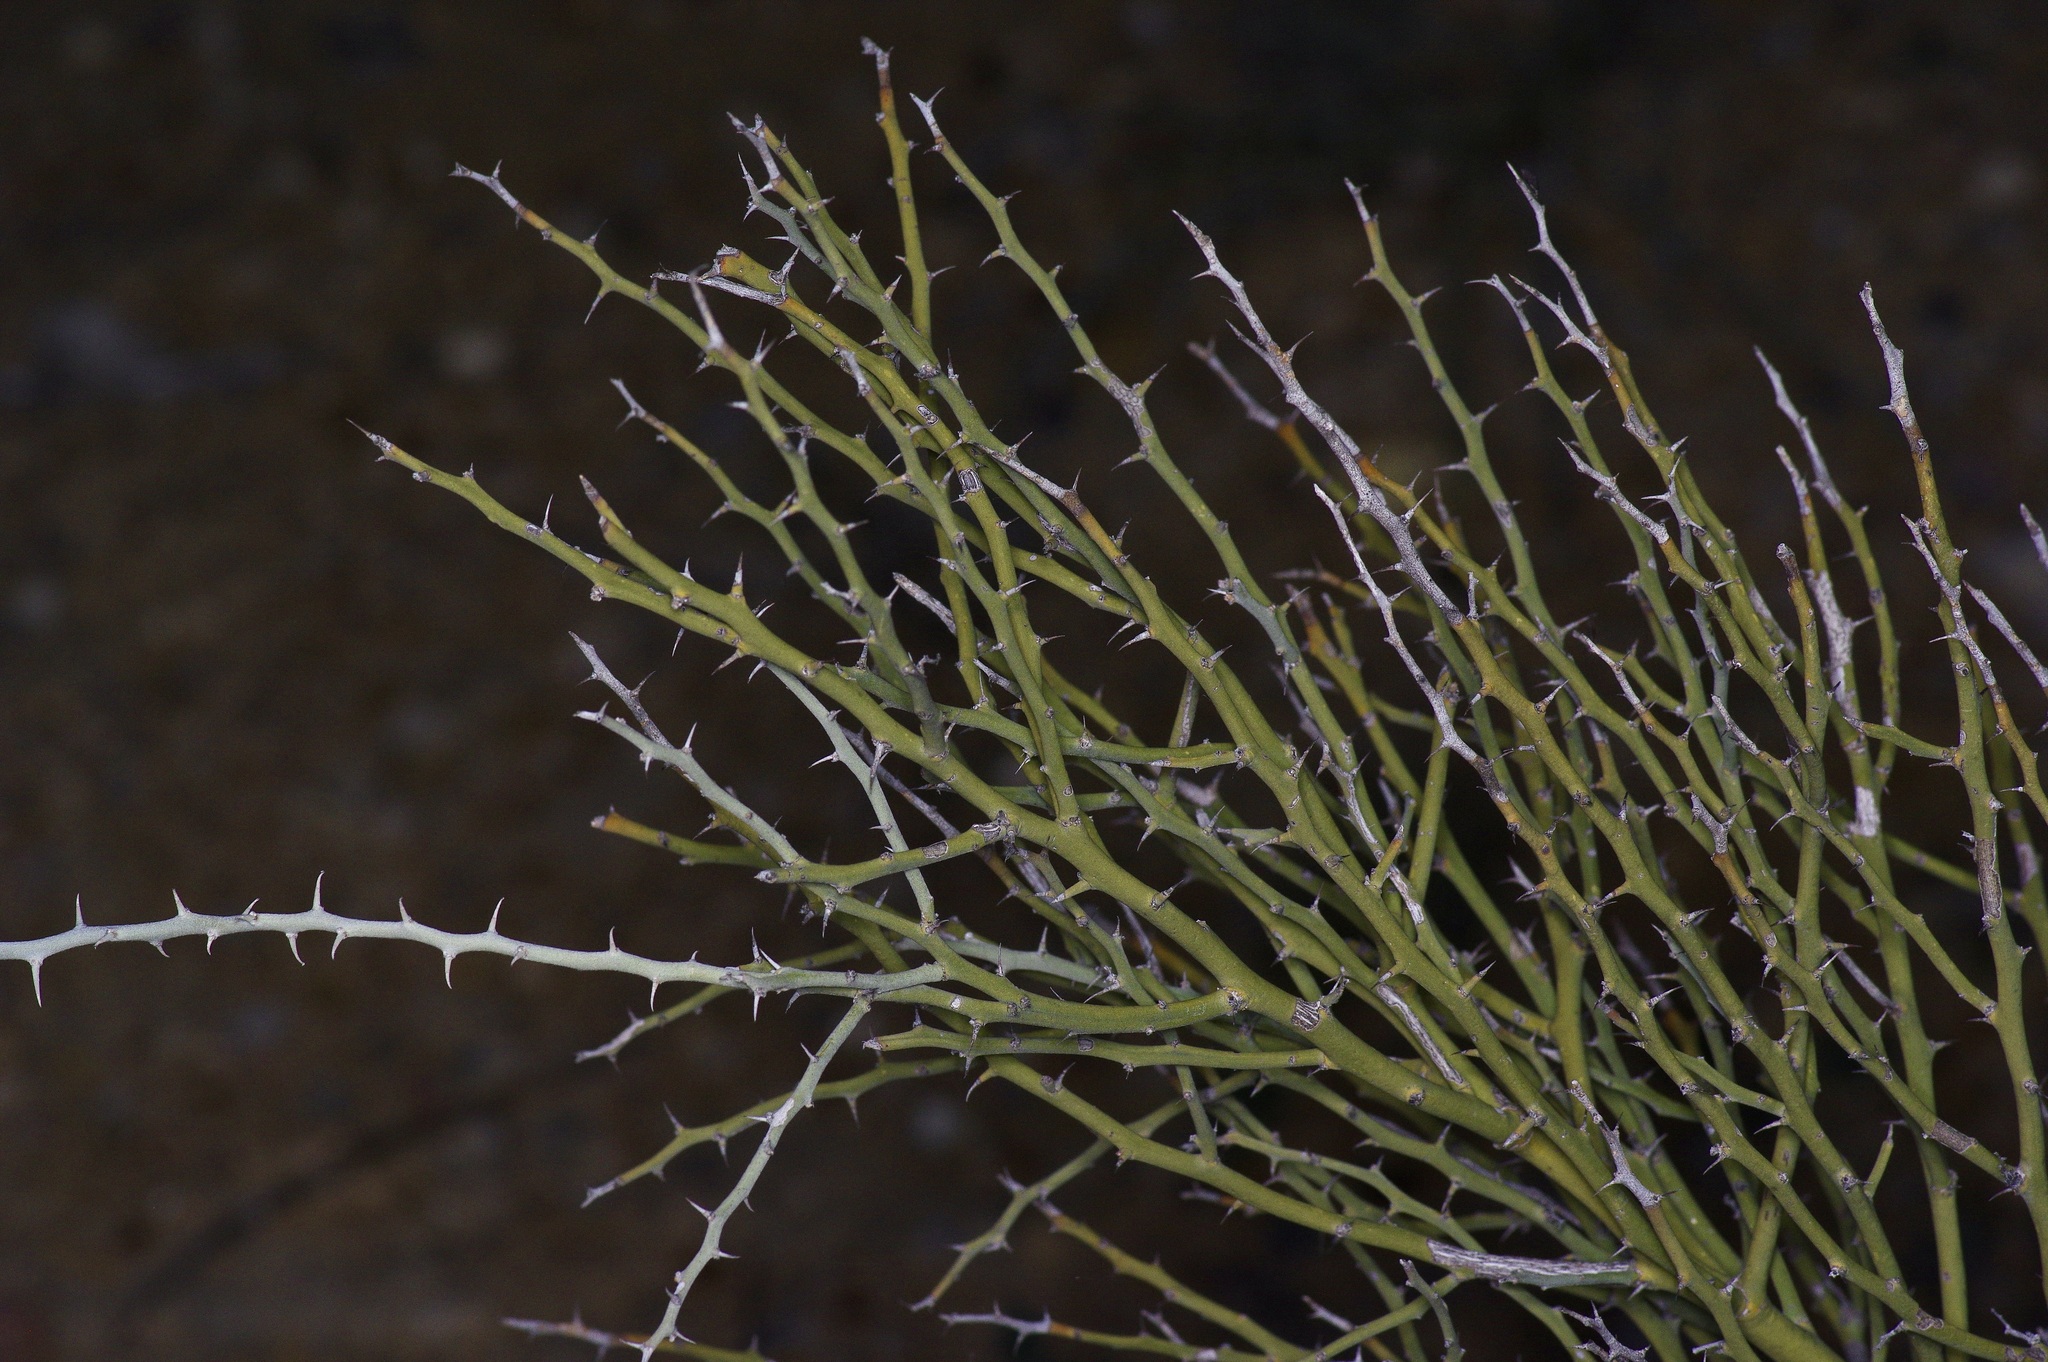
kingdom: Plantae
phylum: Tracheophyta
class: Magnoliopsida
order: Fabales
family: Fabaceae
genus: Parkinsonia
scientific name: Parkinsonia texana
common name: Texas paloverde
